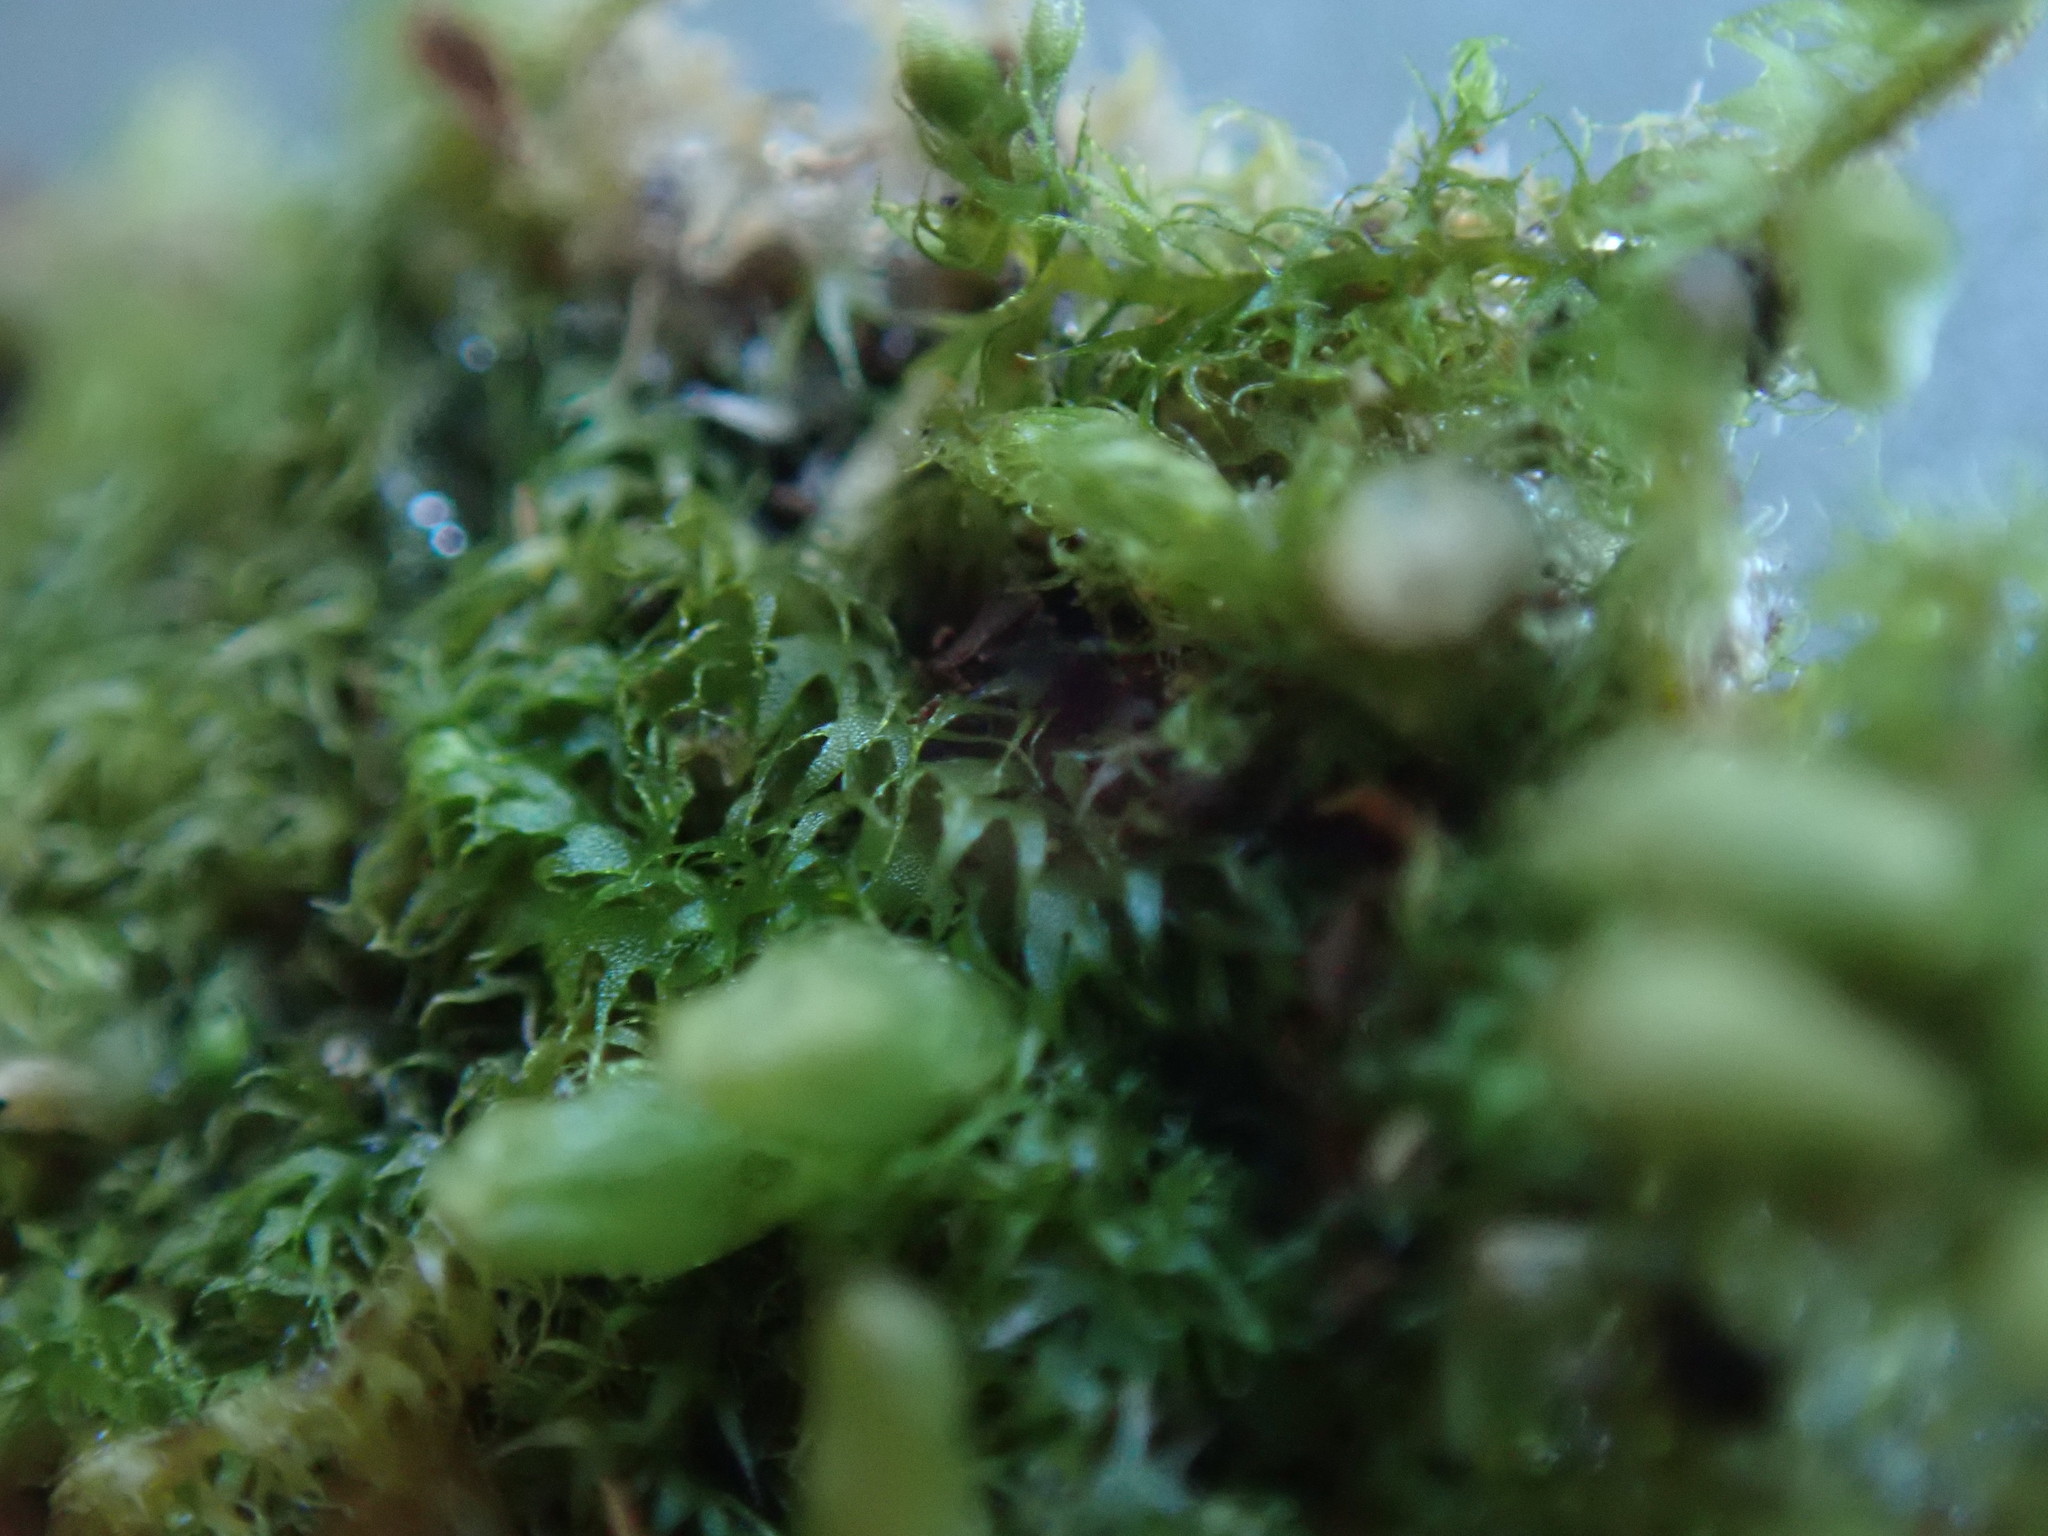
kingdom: Plantae
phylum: Marchantiophyta
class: Jungermanniopsida
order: Ptilidiales
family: Ptilidiaceae
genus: Ptilidium
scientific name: Ptilidium californicum
